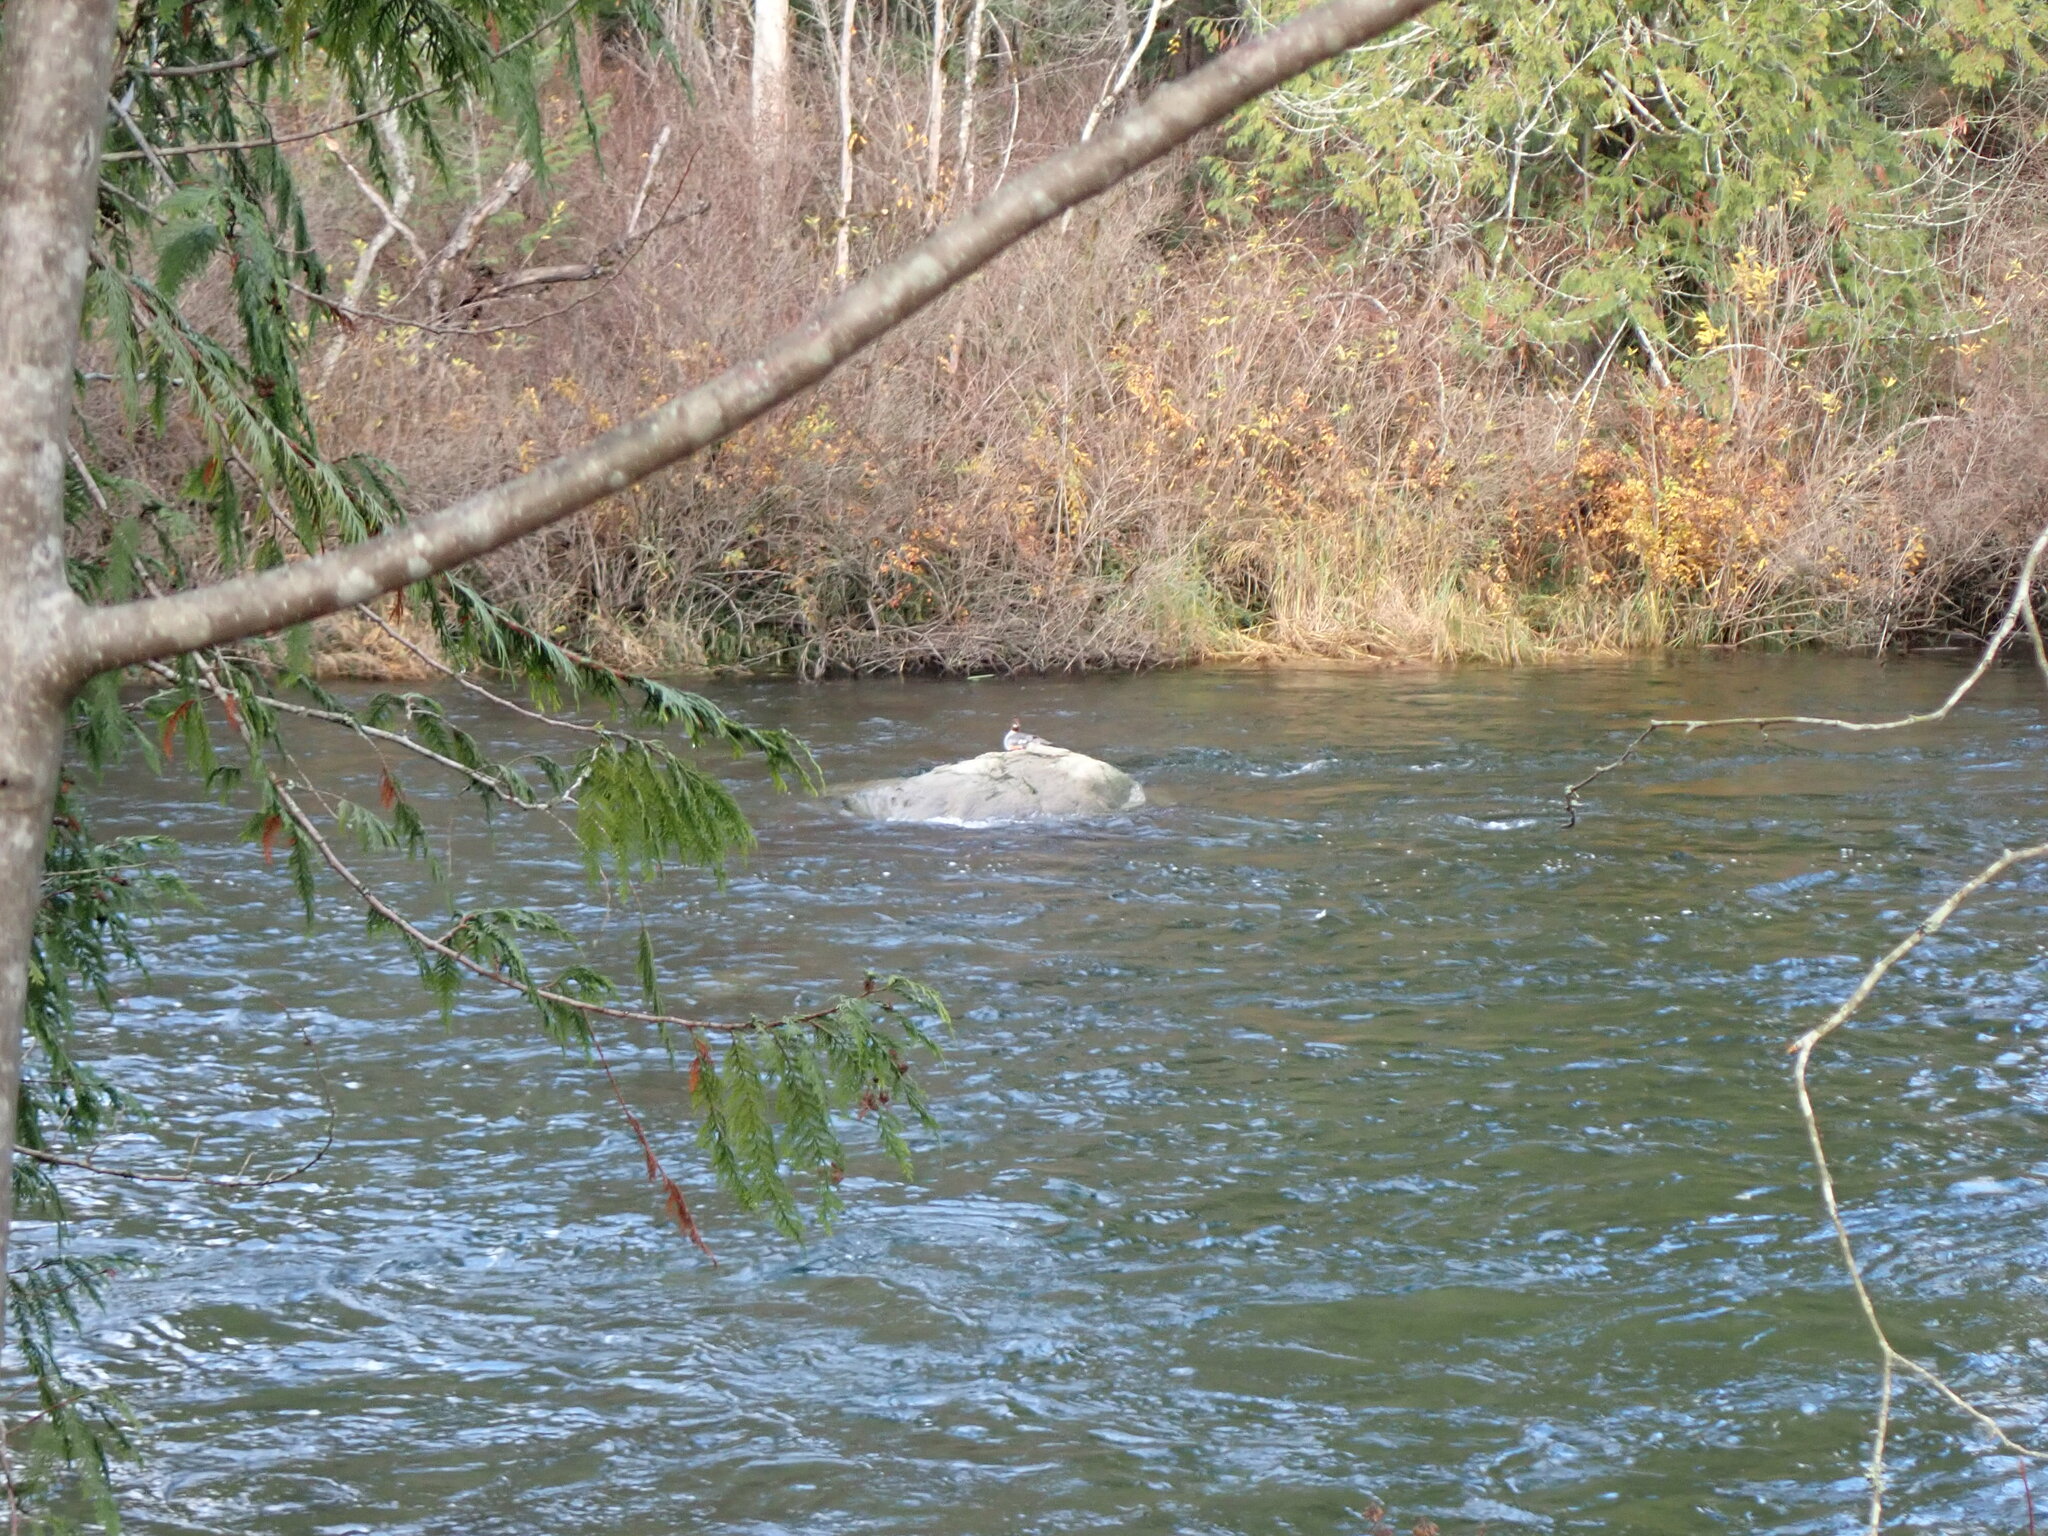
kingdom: Animalia
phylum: Chordata
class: Aves
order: Anseriformes
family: Anatidae
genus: Mergus
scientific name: Mergus merganser
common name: Common merganser
